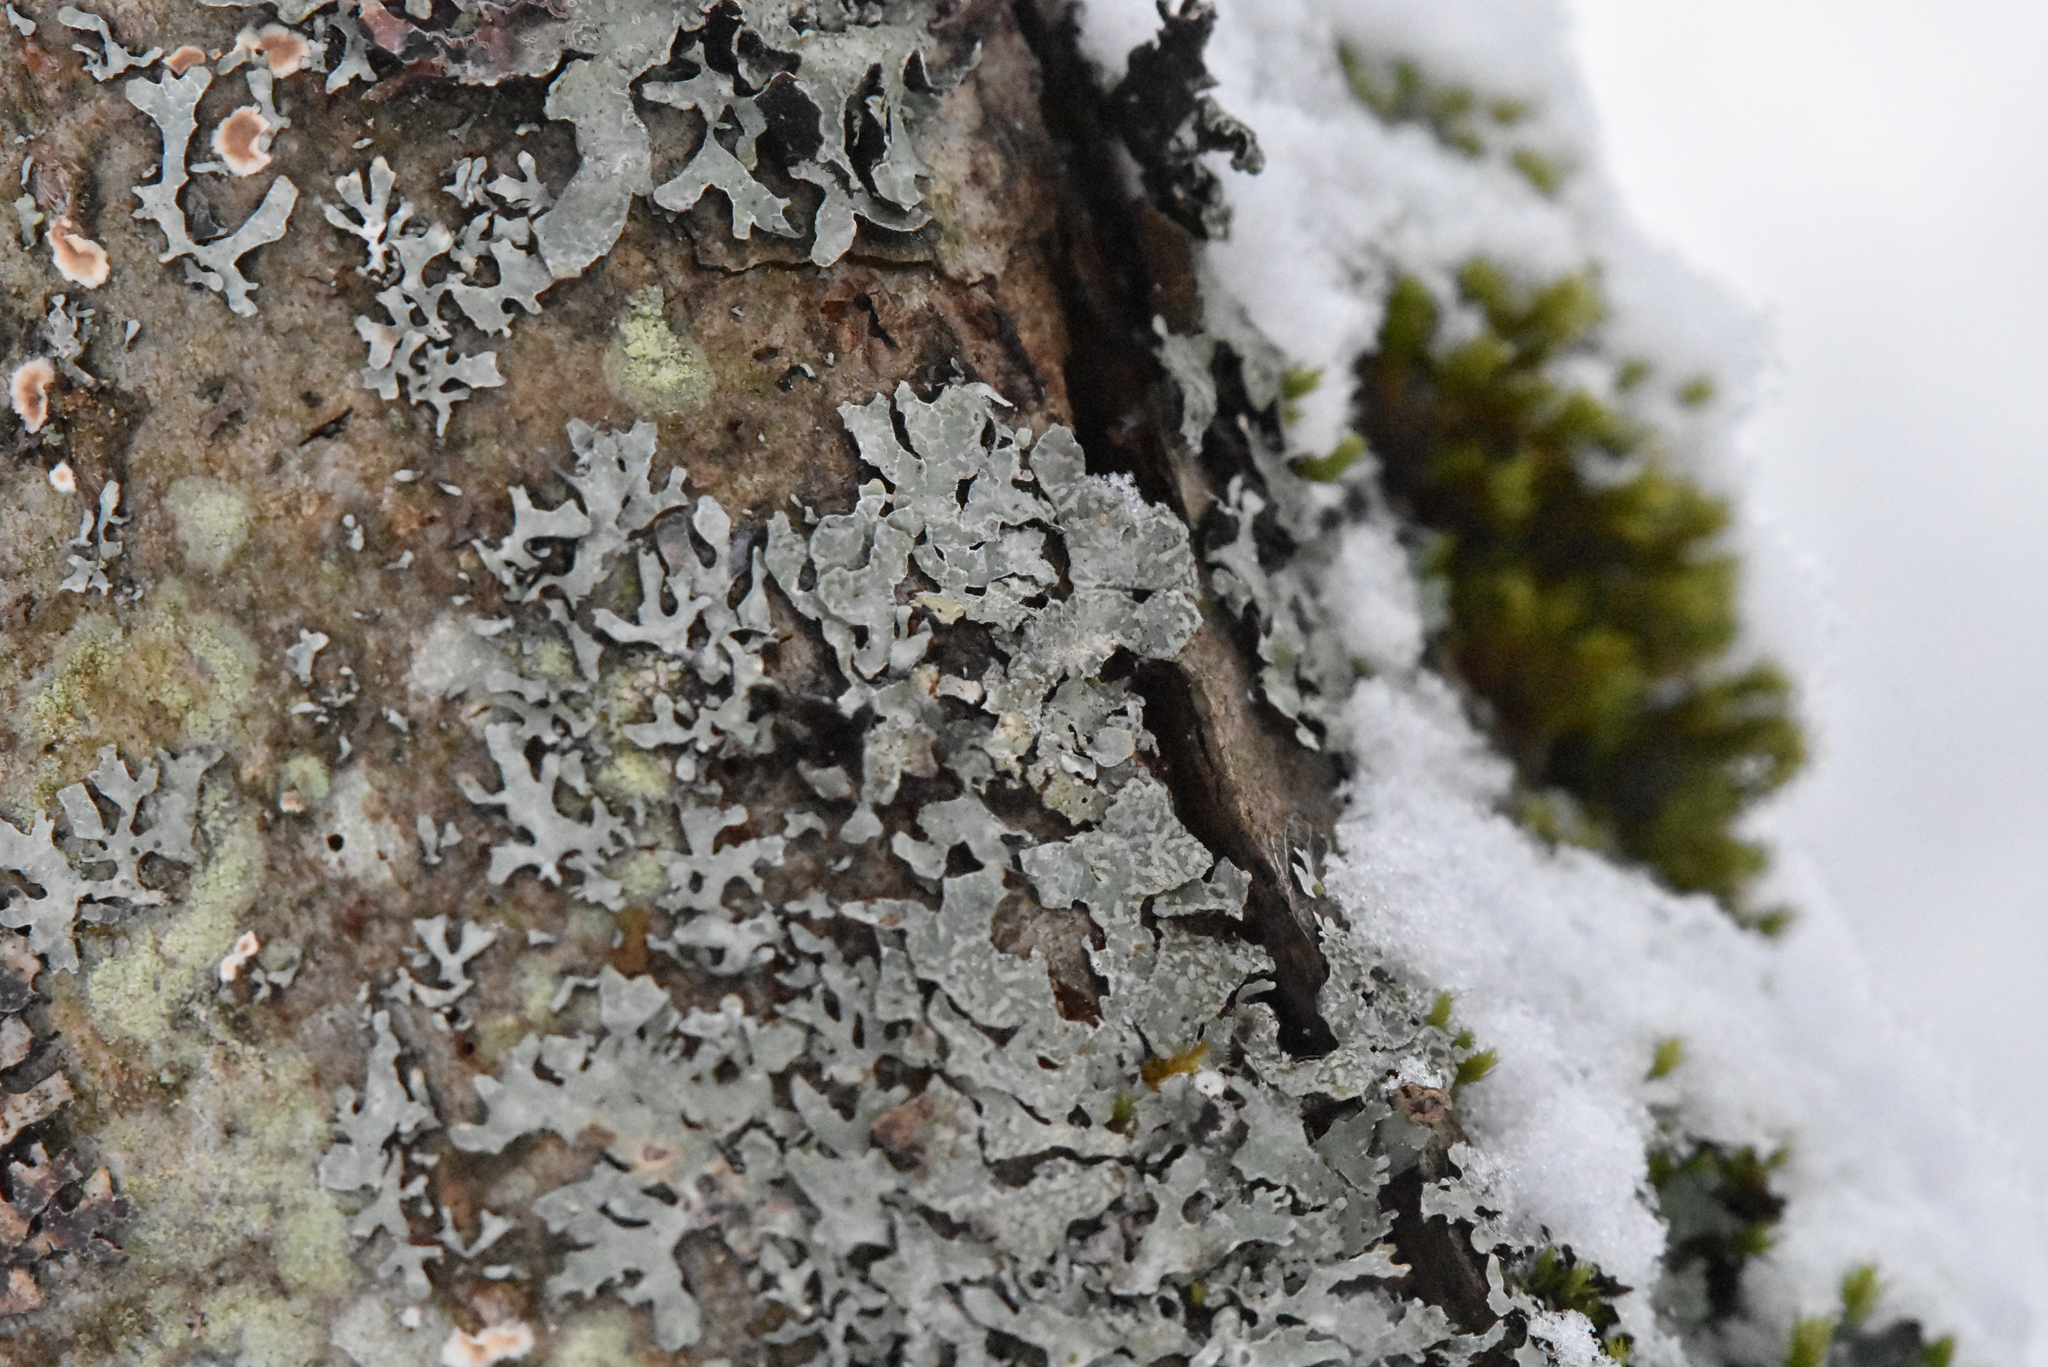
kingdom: Fungi
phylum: Ascomycota
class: Lecanoromycetes
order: Lecanorales
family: Parmeliaceae
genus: Parmelia
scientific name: Parmelia sulcata
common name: Netted shield lichen
